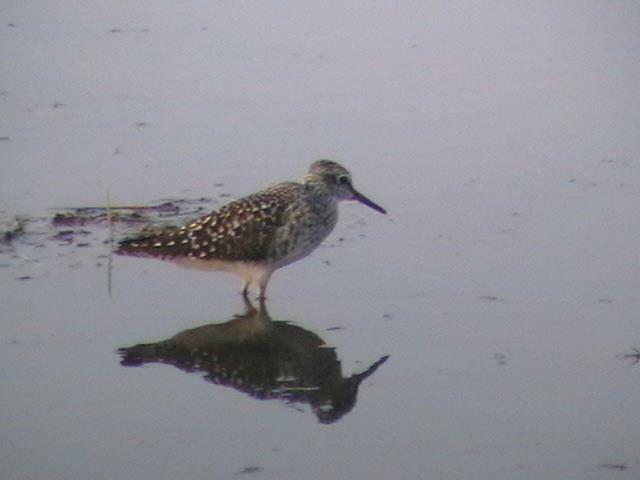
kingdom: Animalia
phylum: Chordata
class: Aves
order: Charadriiformes
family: Scolopacidae
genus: Tringa
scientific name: Tringa glareola
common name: Wood sandpiper
